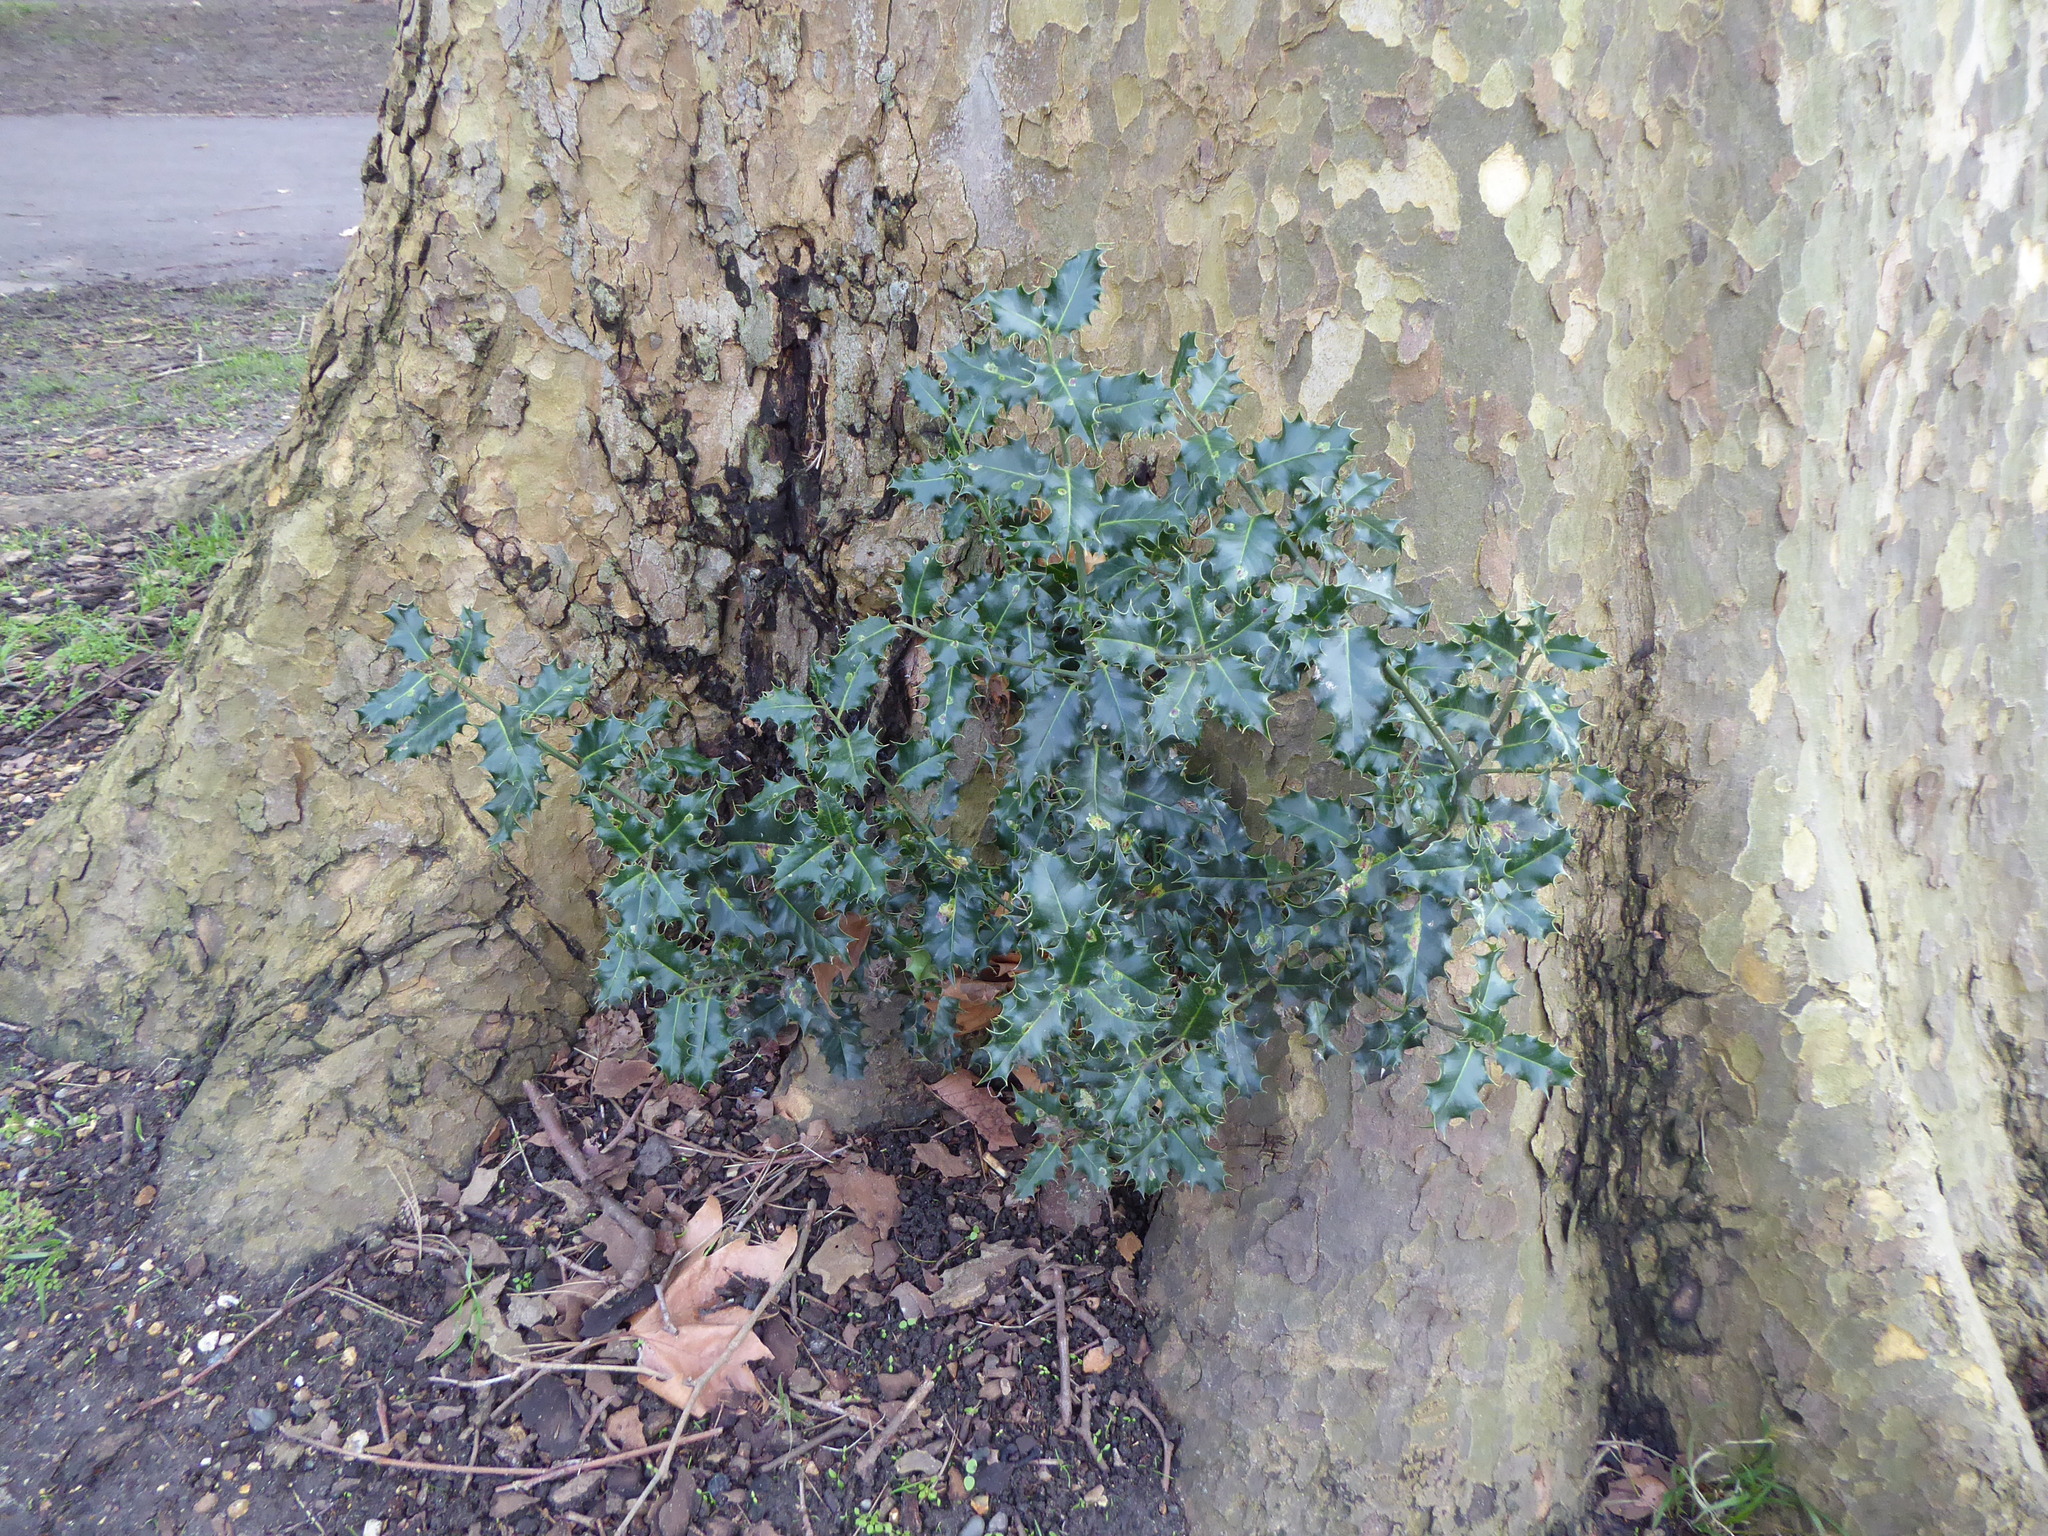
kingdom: Plantae
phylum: Tracheophyta
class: Magnoliopsida
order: Aquifoliales
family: Aquifoliaceae
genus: Ilex
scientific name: Ilex aquifolium
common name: English holly
